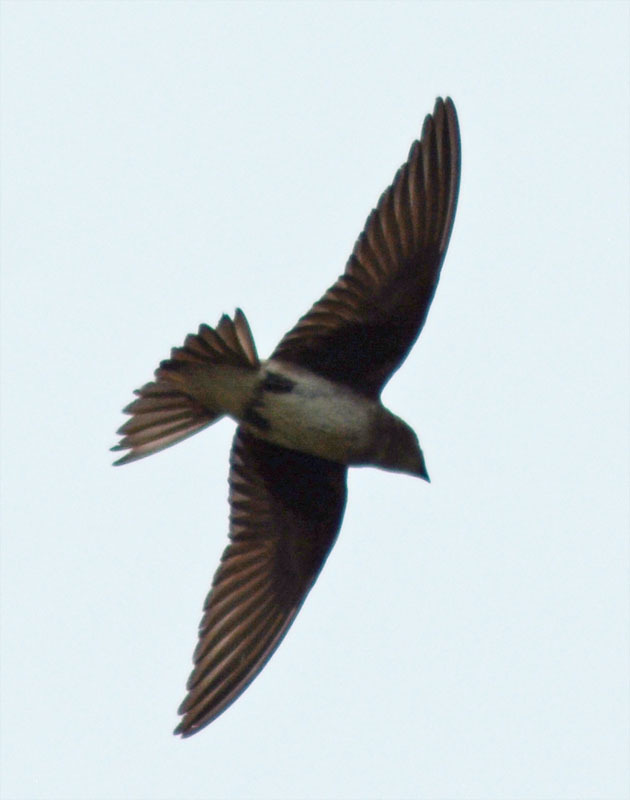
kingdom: Animalia
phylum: Chordata
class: Aves
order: Passeriformes
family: Hirundinidae
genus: Progne
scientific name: Progne chalybea
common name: Grey-breasted martin
